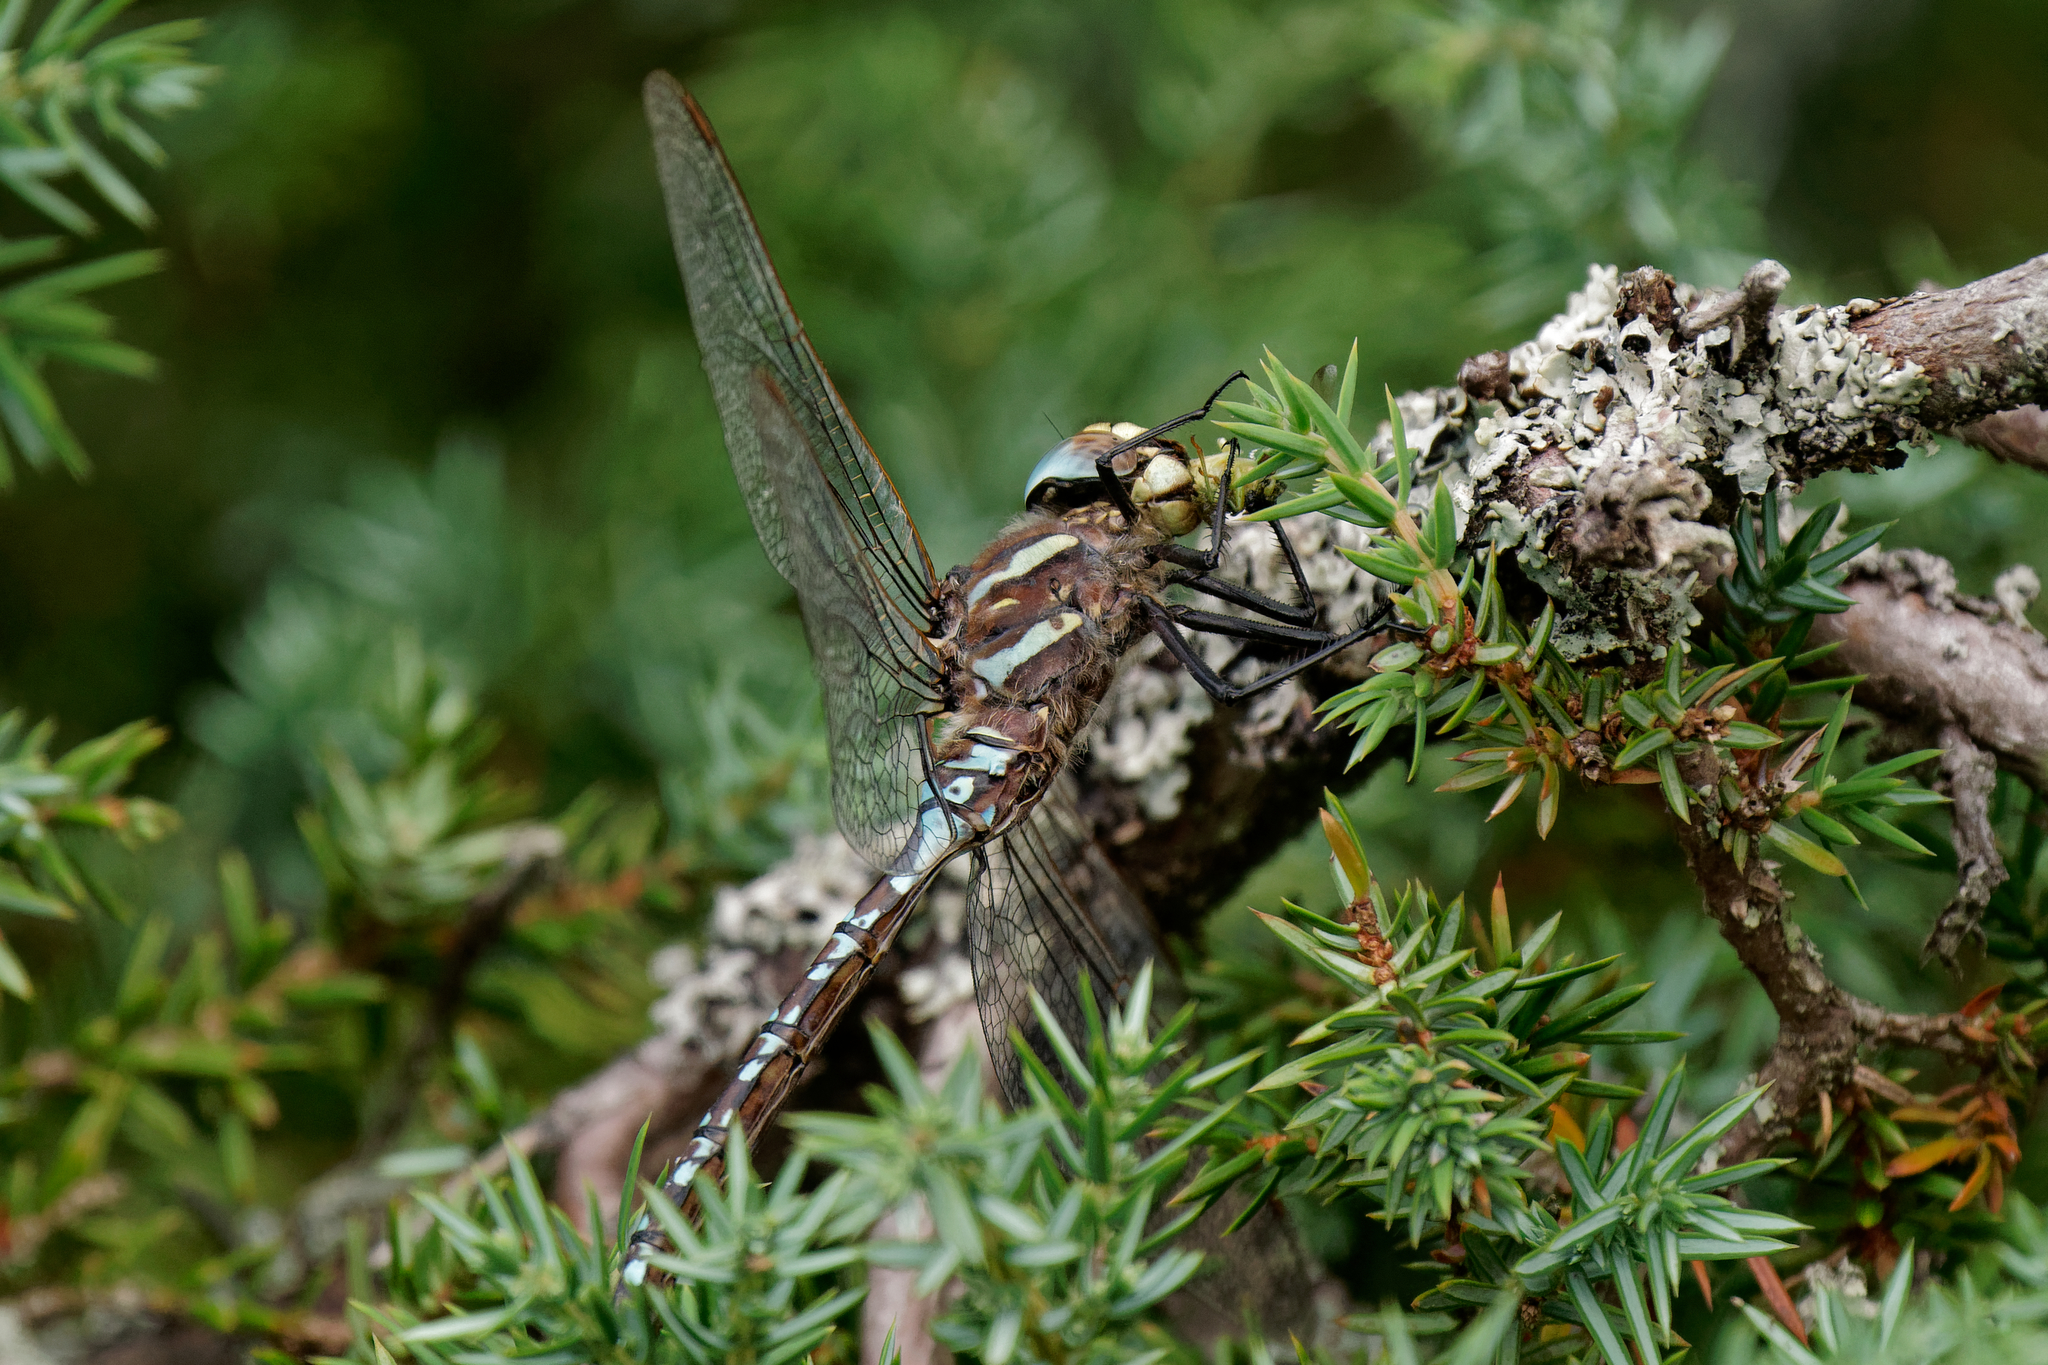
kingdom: Animalia
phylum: Arthropoda
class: Insecta
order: Odonata
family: Aeshnidae
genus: Aeshna
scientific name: Aeshna juncea
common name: Moorland hawker
